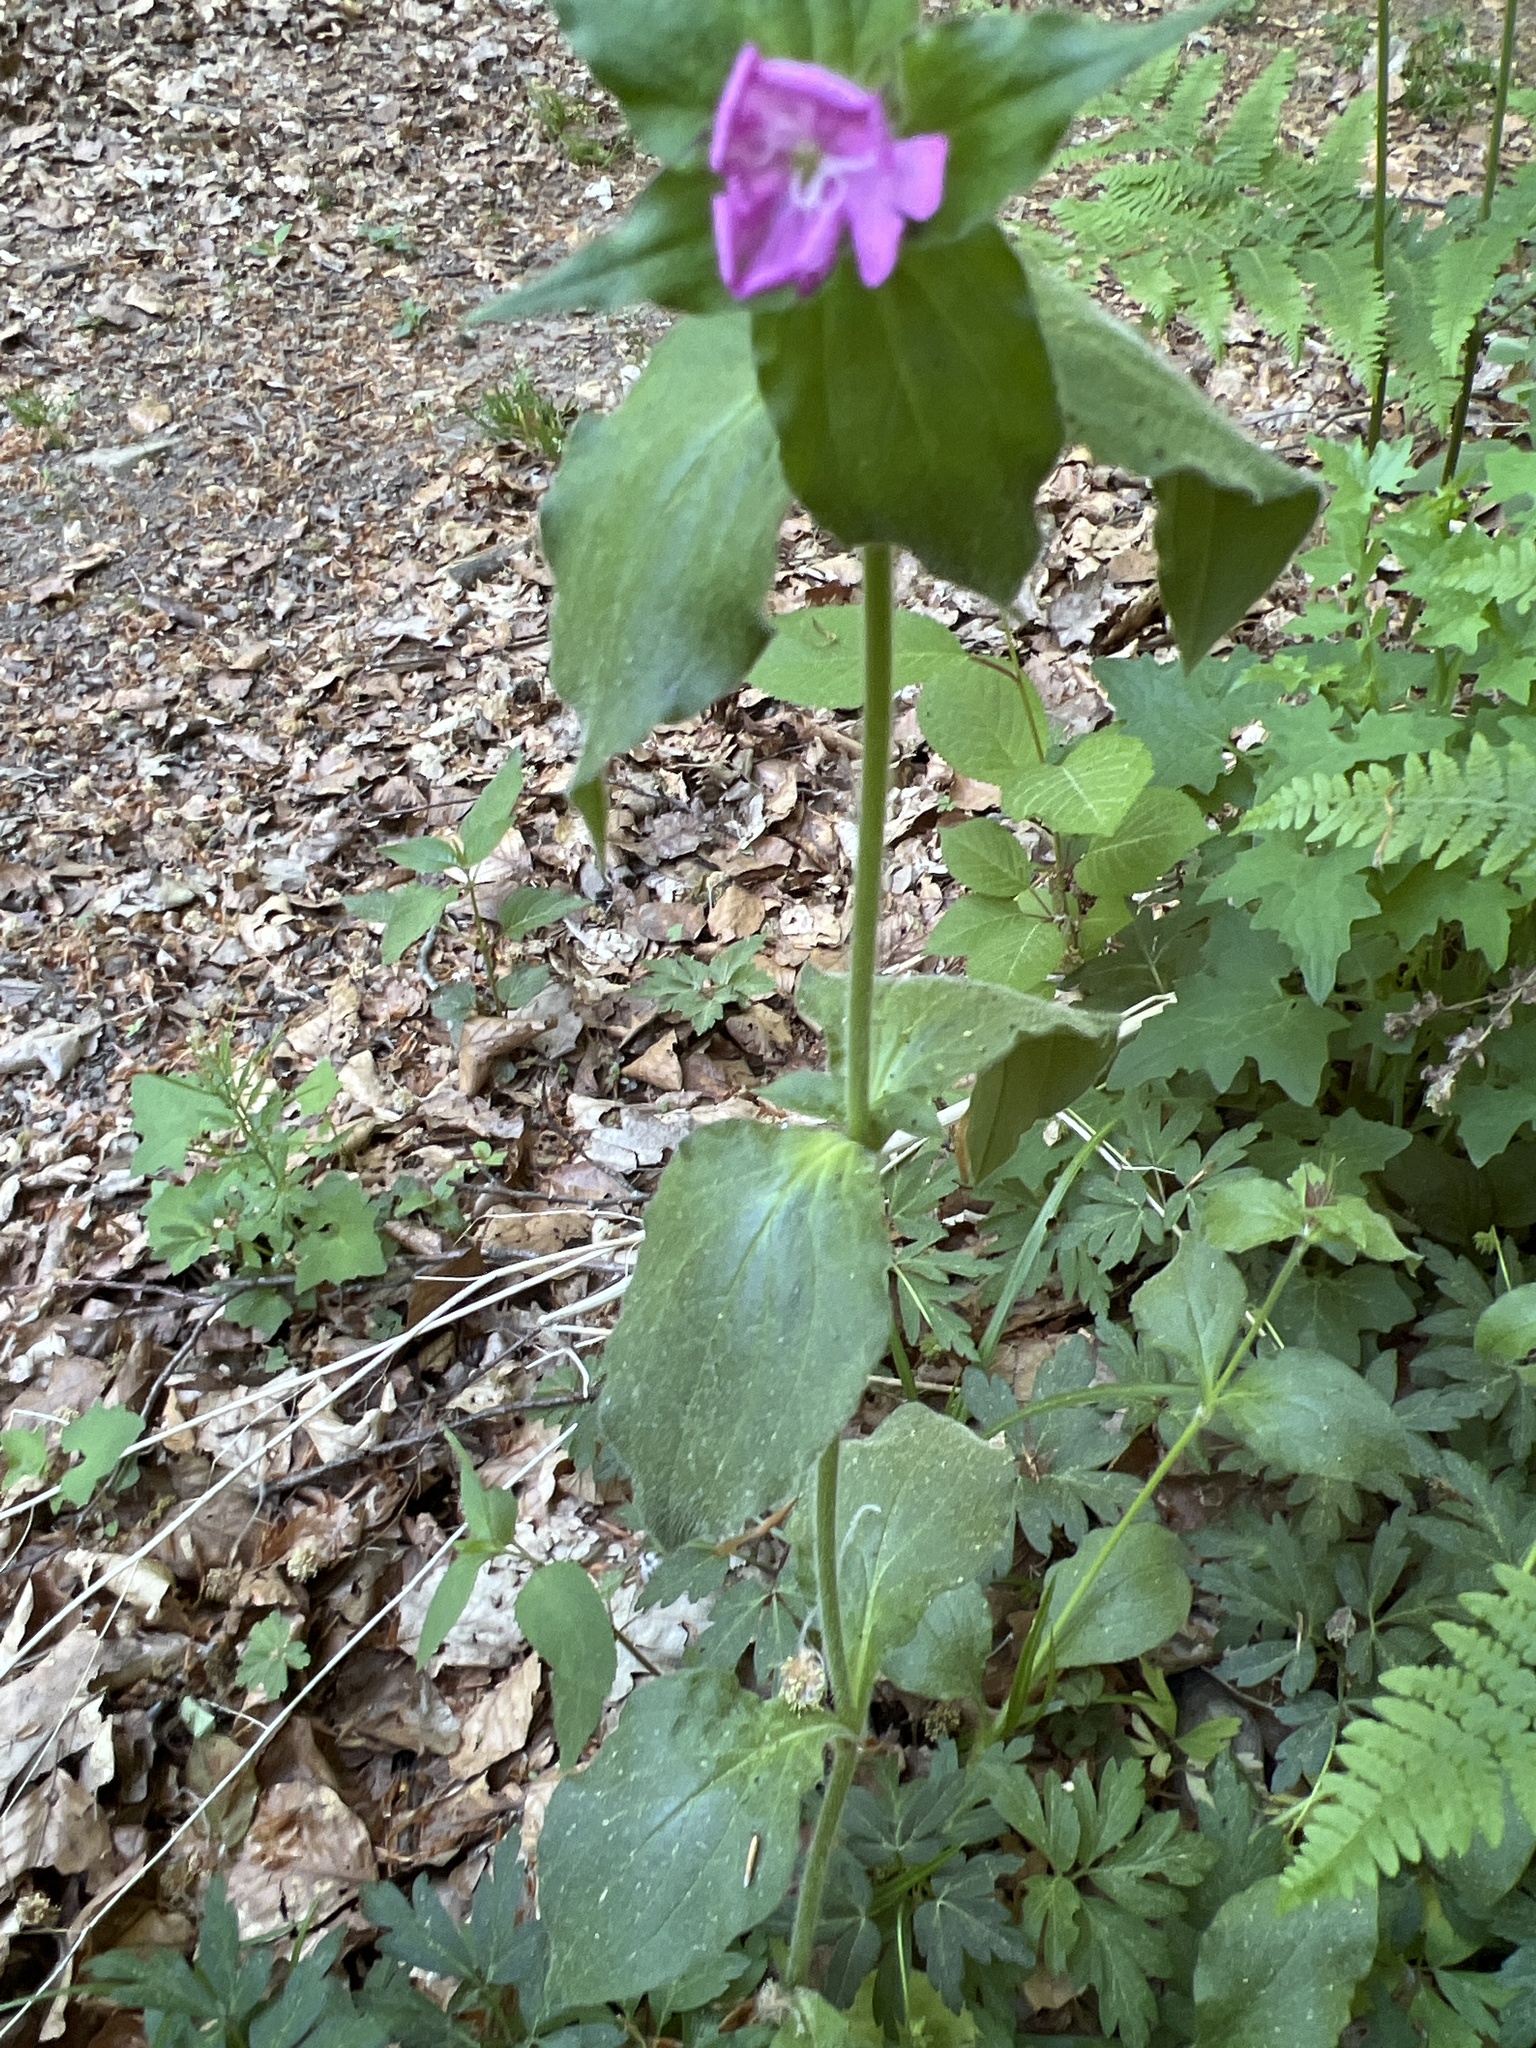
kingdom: Plantae
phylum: Tracheophyta
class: Magnoliopsida
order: Caryophyllales
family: Caryophyllaceae
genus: Silene
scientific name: Silene dioica
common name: Red campion
